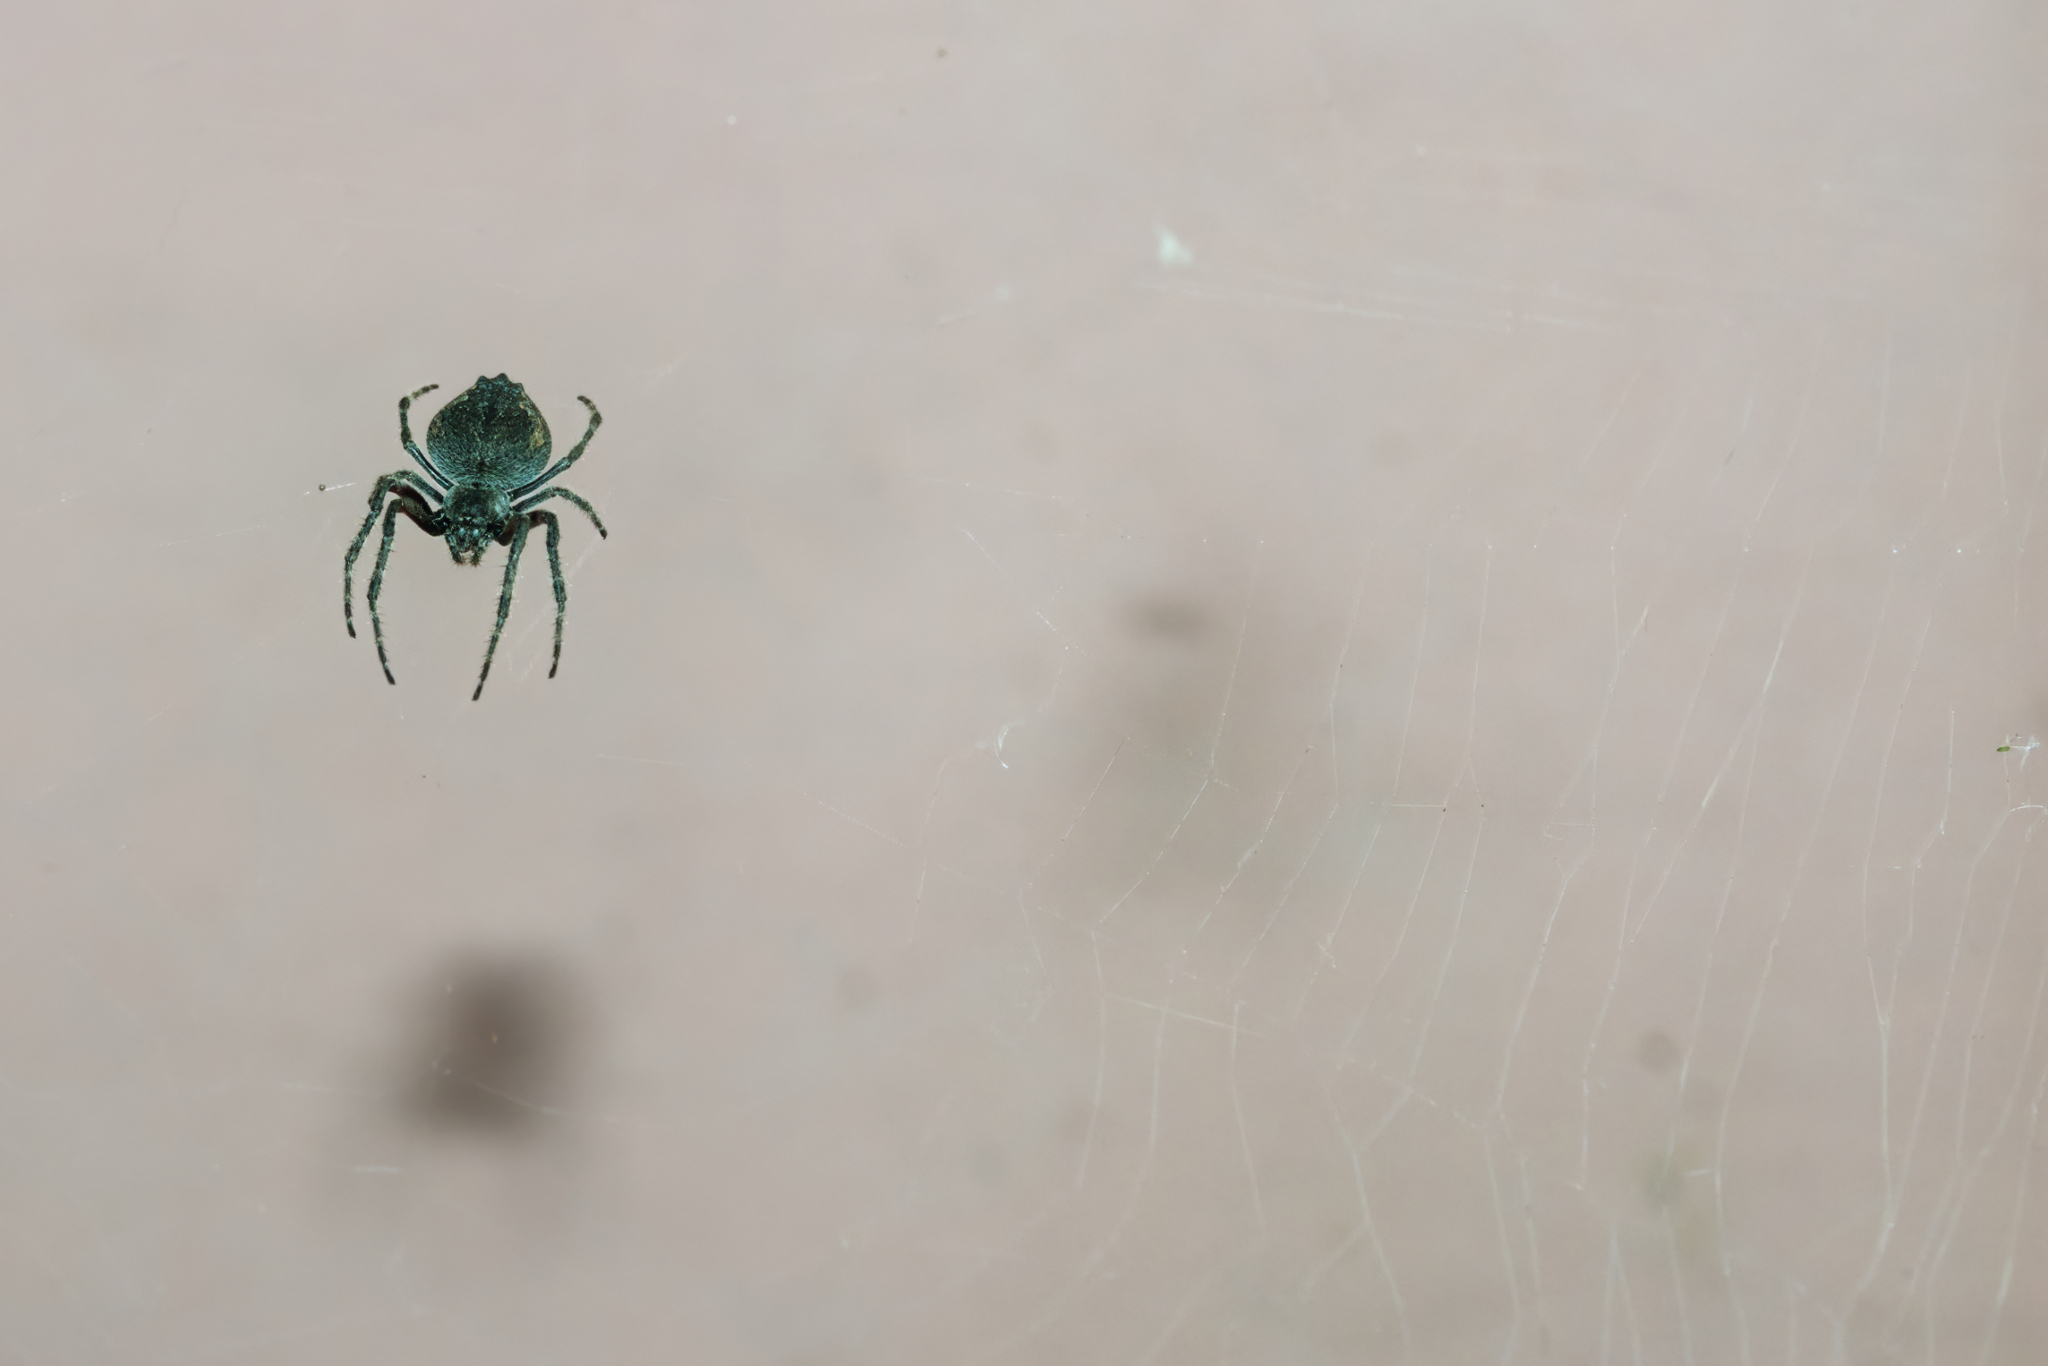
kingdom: Animalia
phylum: Arthropoda
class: Arachnida
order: Araneae
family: Araneidae
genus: Eriophora
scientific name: Eriophora pustulosa
